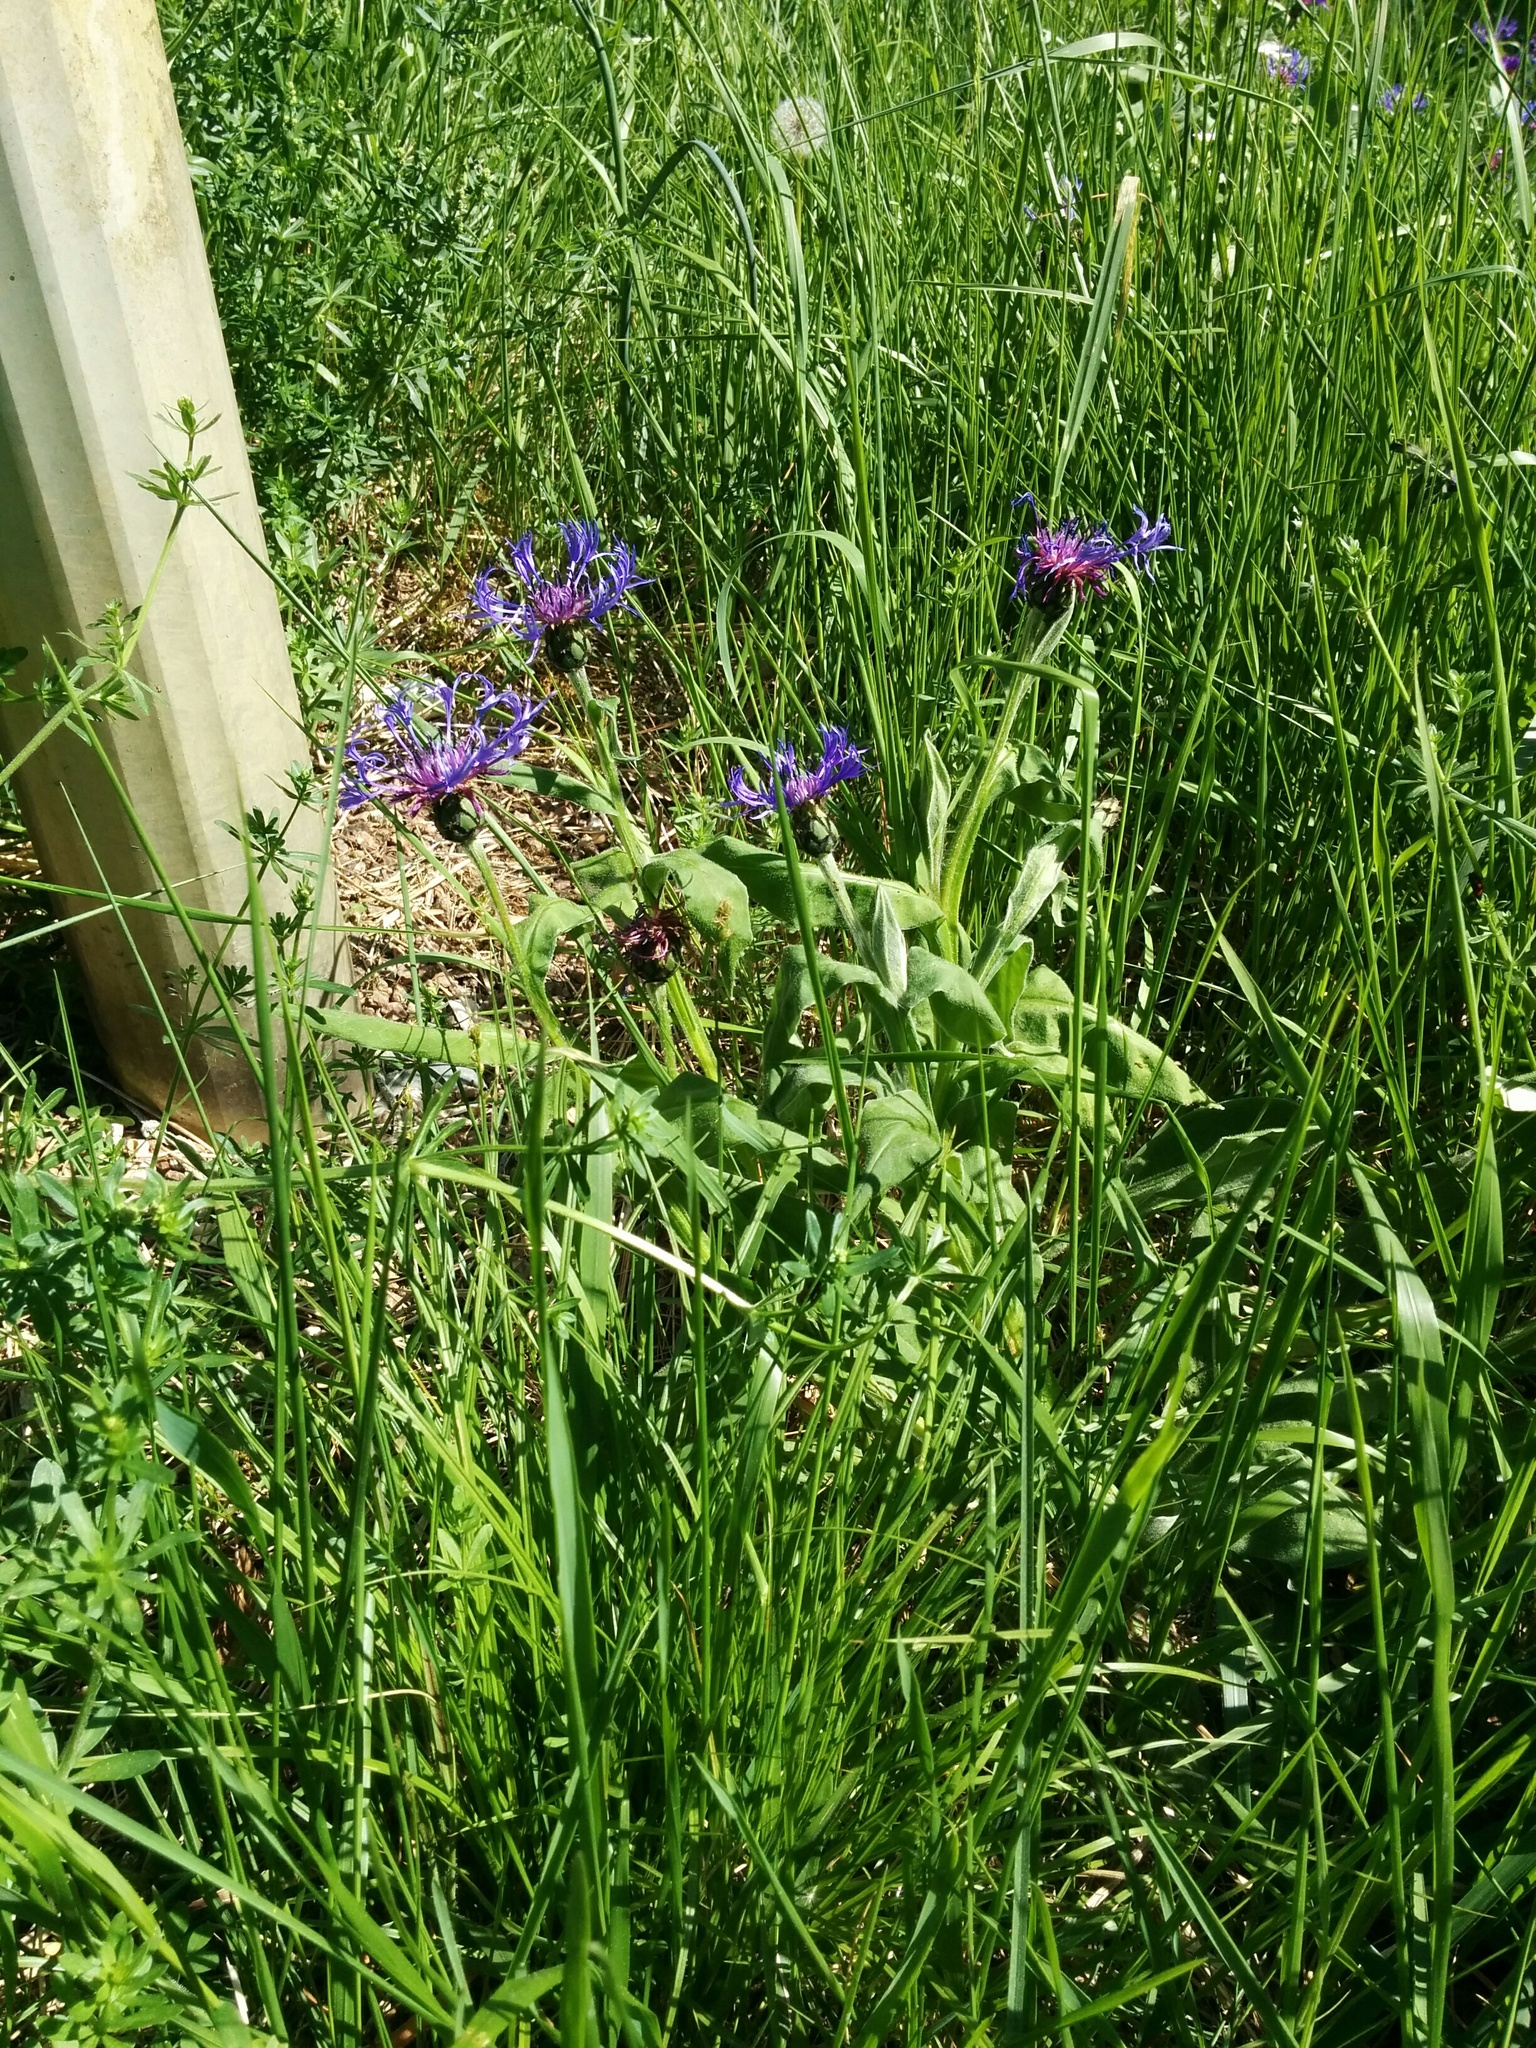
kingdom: Plantae
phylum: Tracheophyta
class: Magnoliopsida
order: Asterales
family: Asteraceae
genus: Centaurea
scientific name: Centaurea montana
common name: Perennial cornflower
